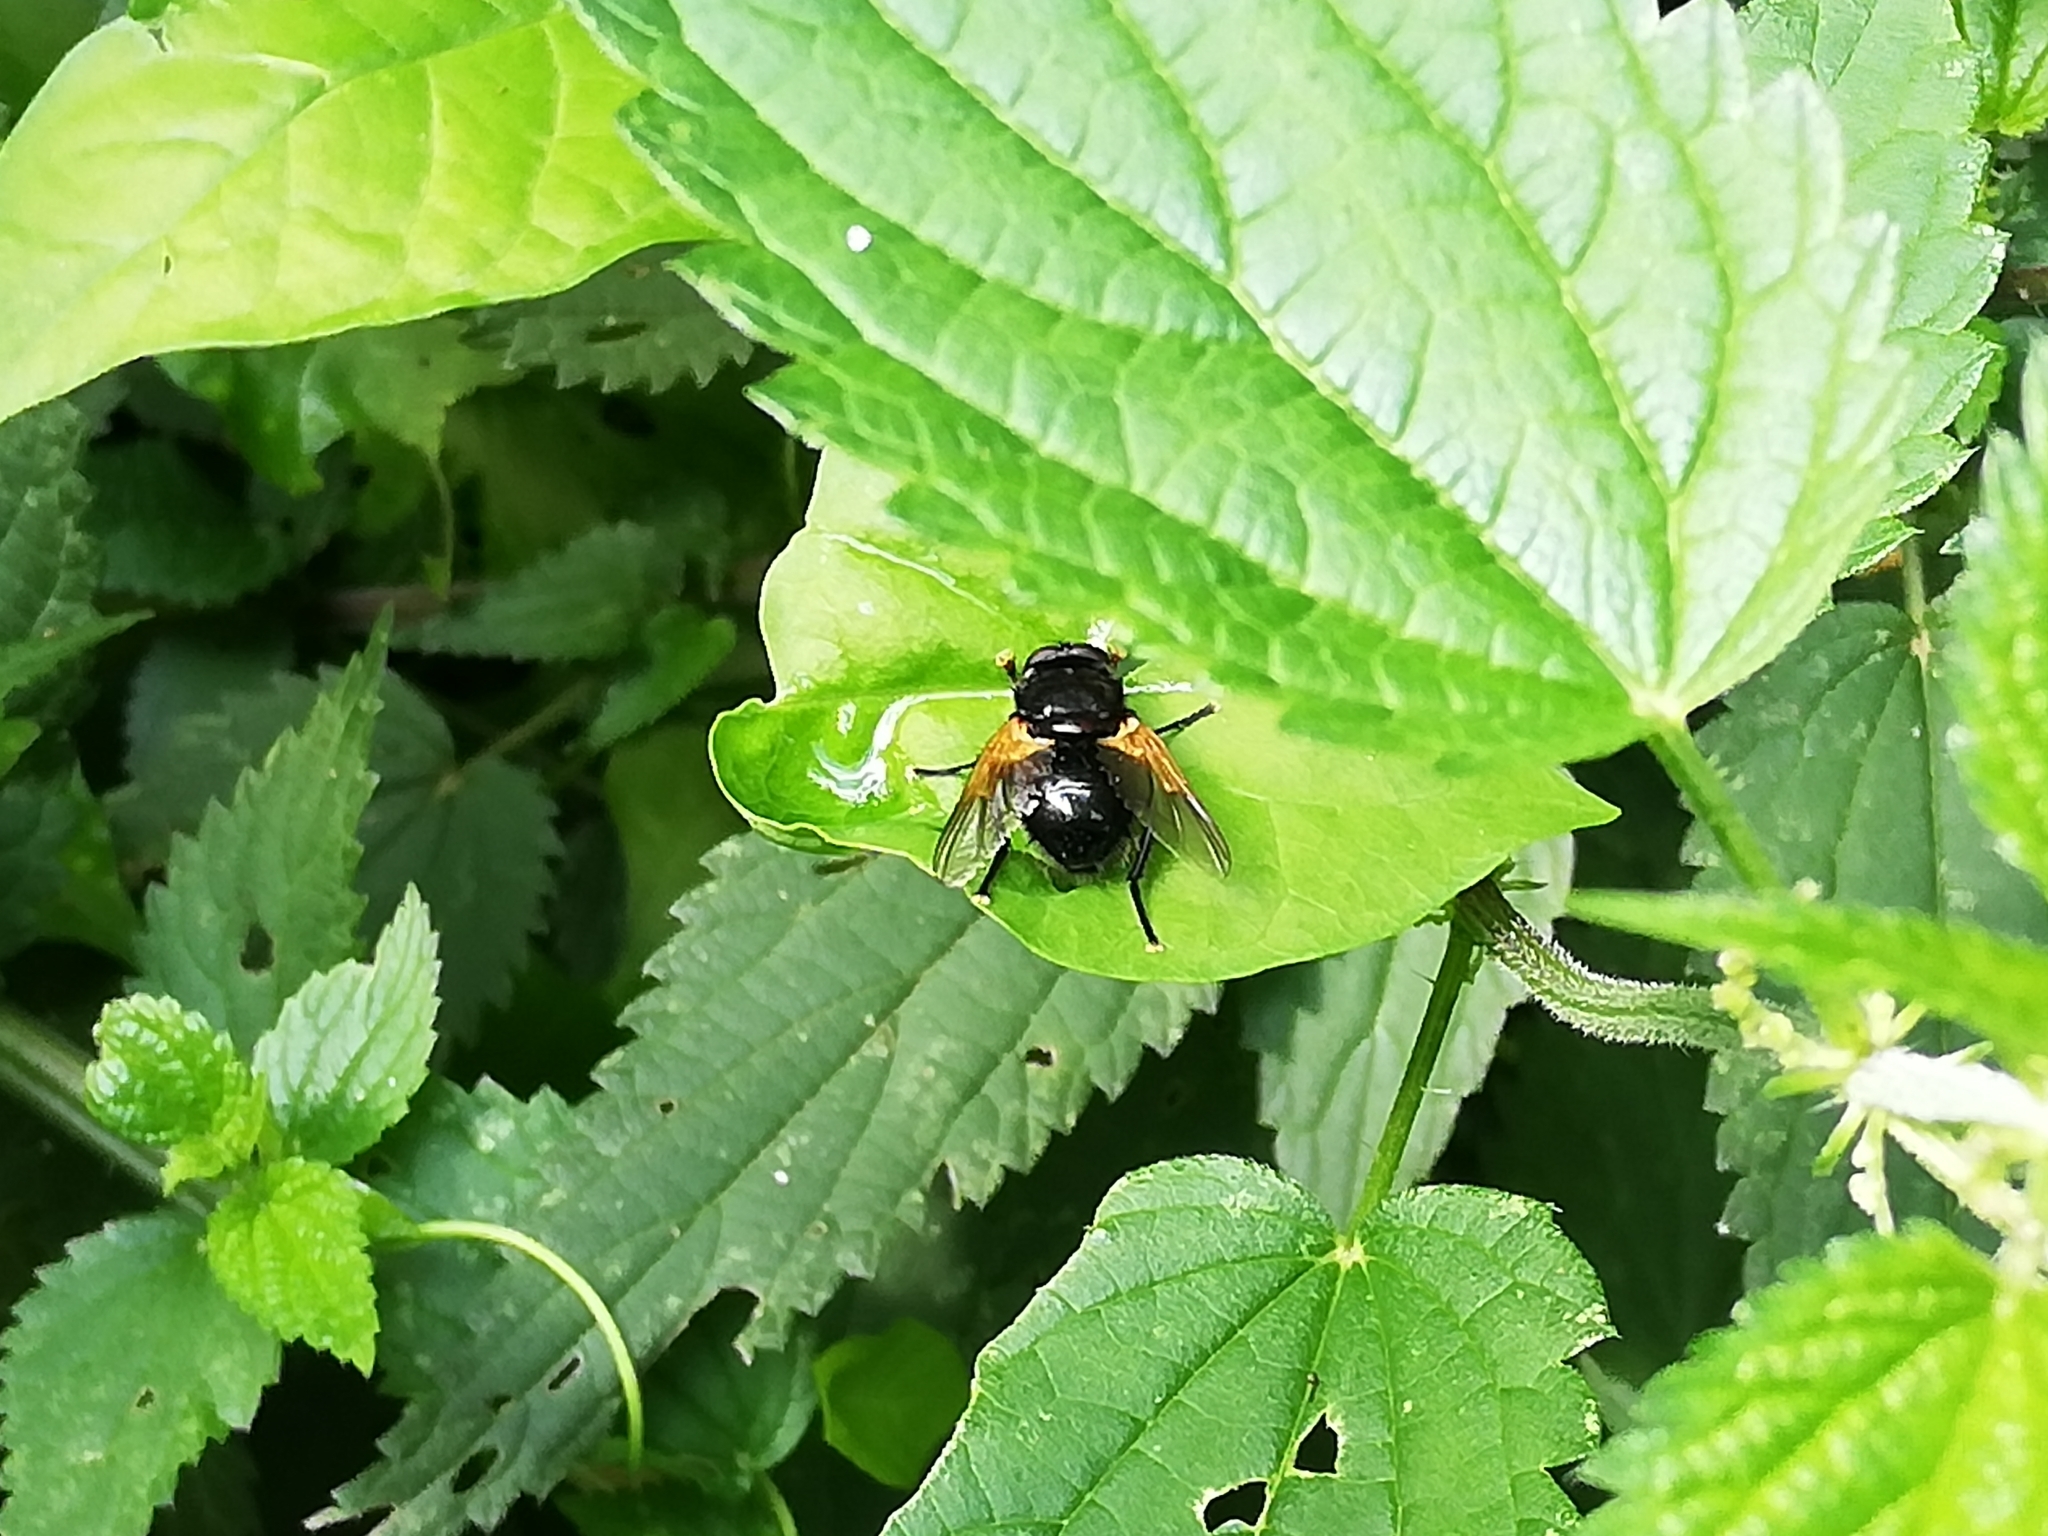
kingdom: Animalia
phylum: Arthropoda
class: Insecta
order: Diptera
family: Muscidae
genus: Mesembrina
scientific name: Mesembrina meridiana
